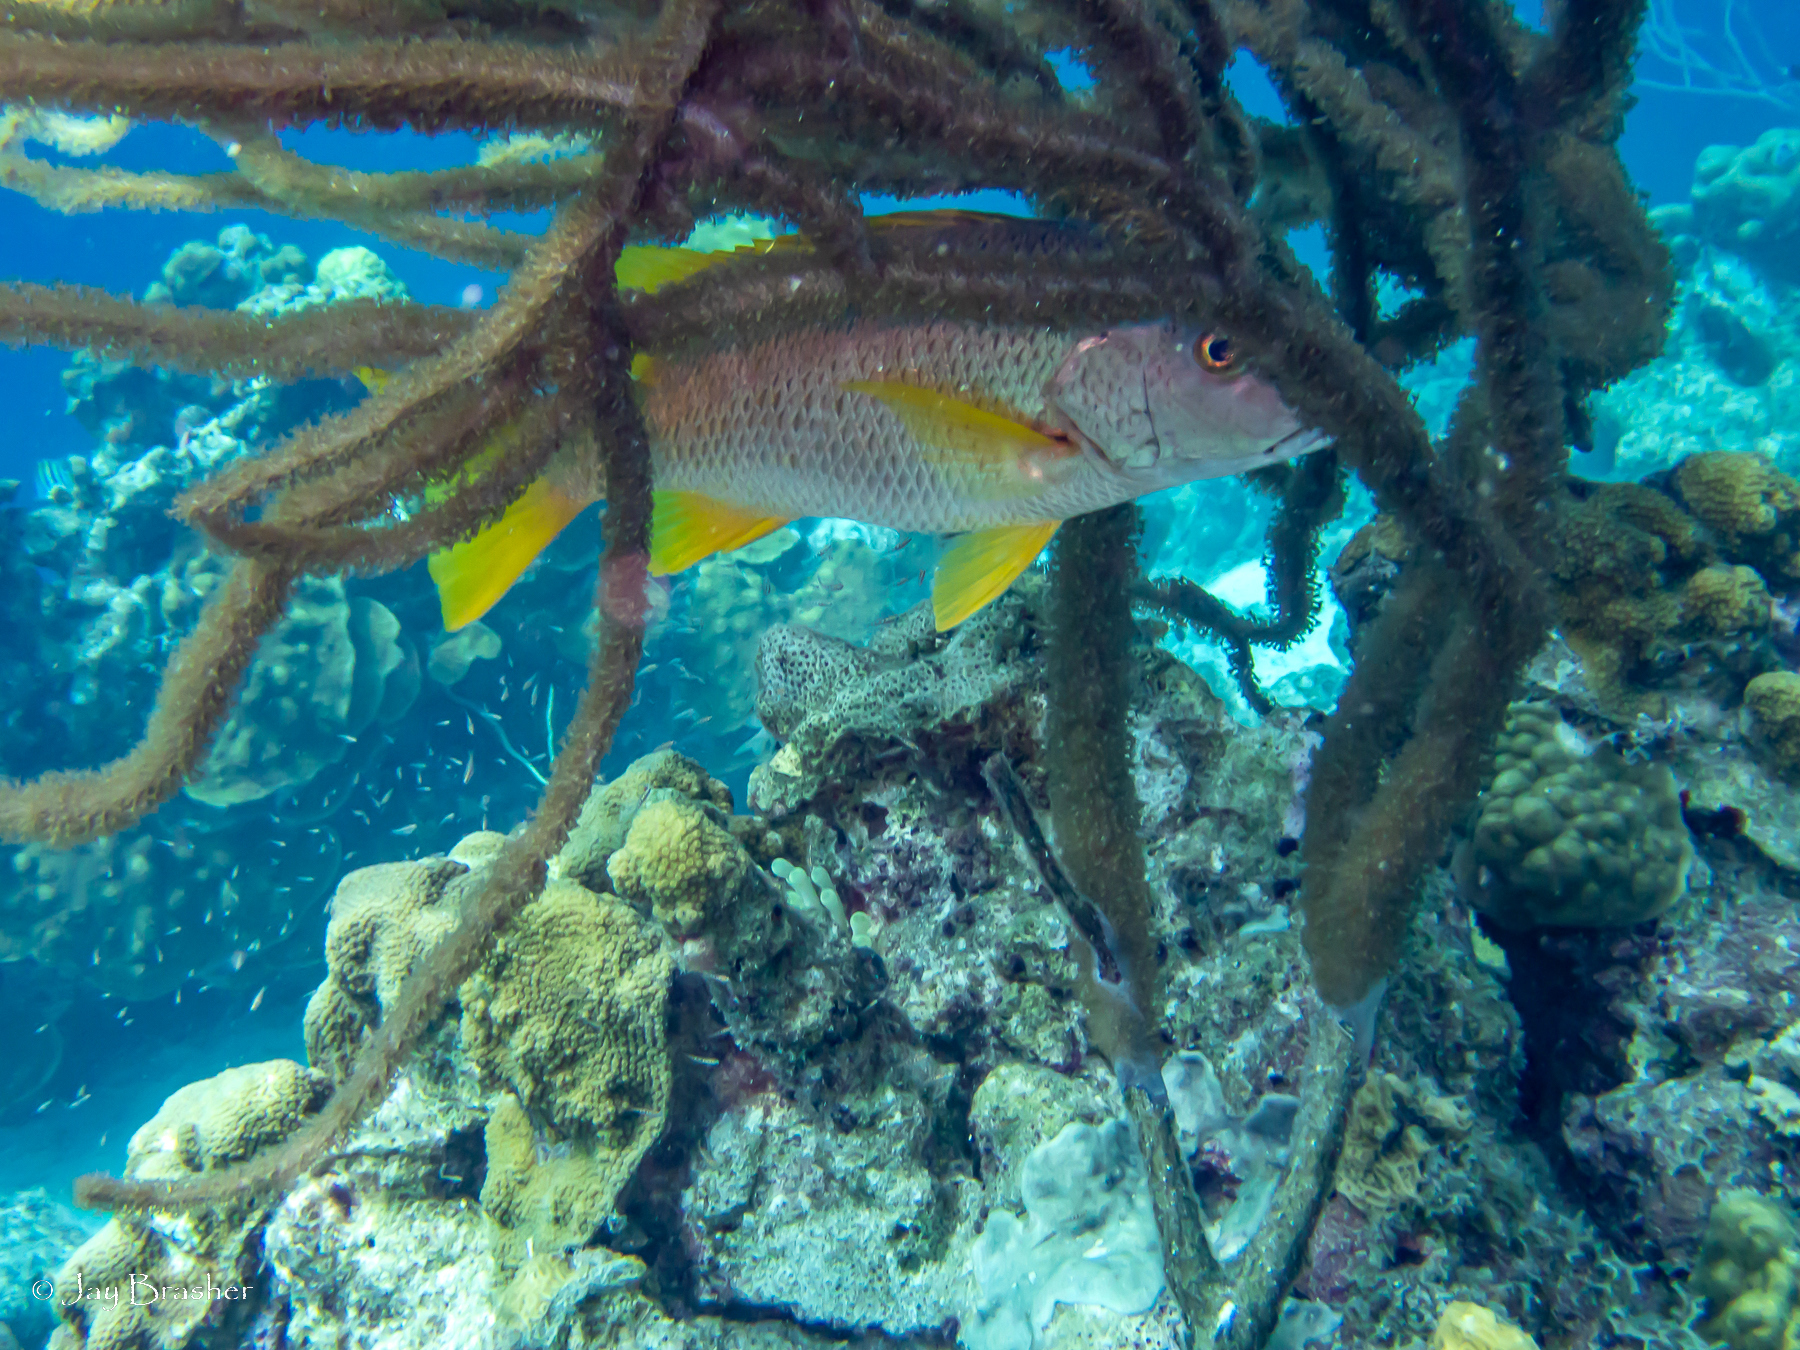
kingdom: Animalia
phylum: Chordata
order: Perciformes
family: Lutjanidae
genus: Lutjanus
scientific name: Lutjanus apodus
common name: Schoolmaster
